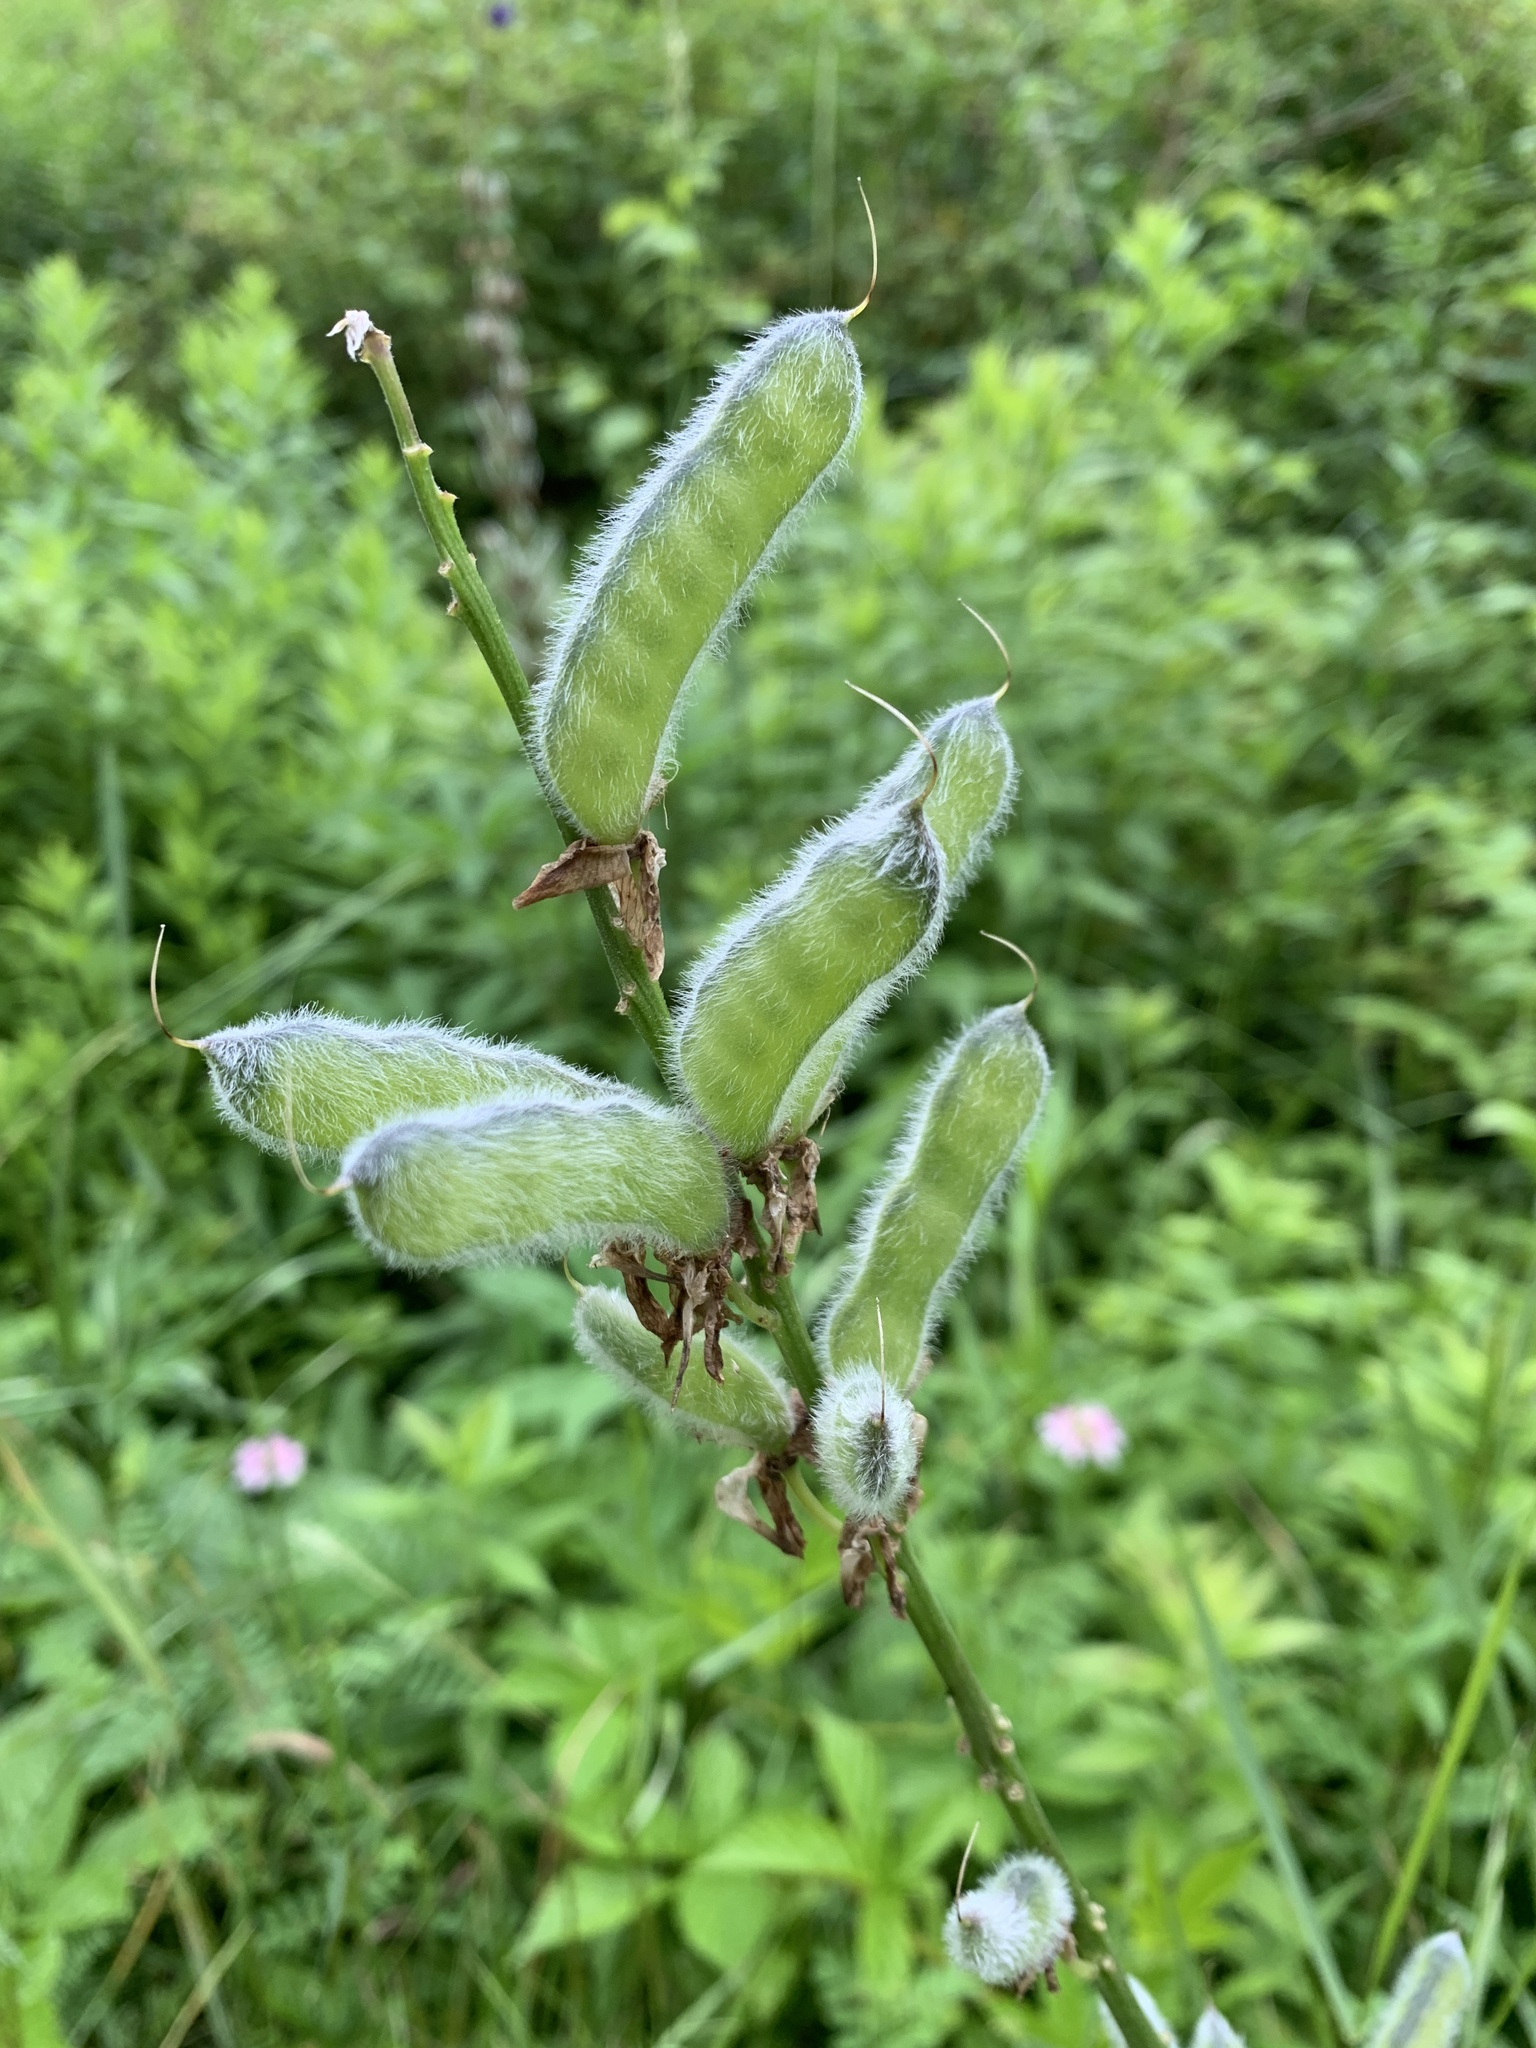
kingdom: Plantae
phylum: Tracheophyta
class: Magnoliopsida
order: Fabales
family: Fabaceae
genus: Lupinus
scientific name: Lupinus polyphyllus
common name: Garden lupin
